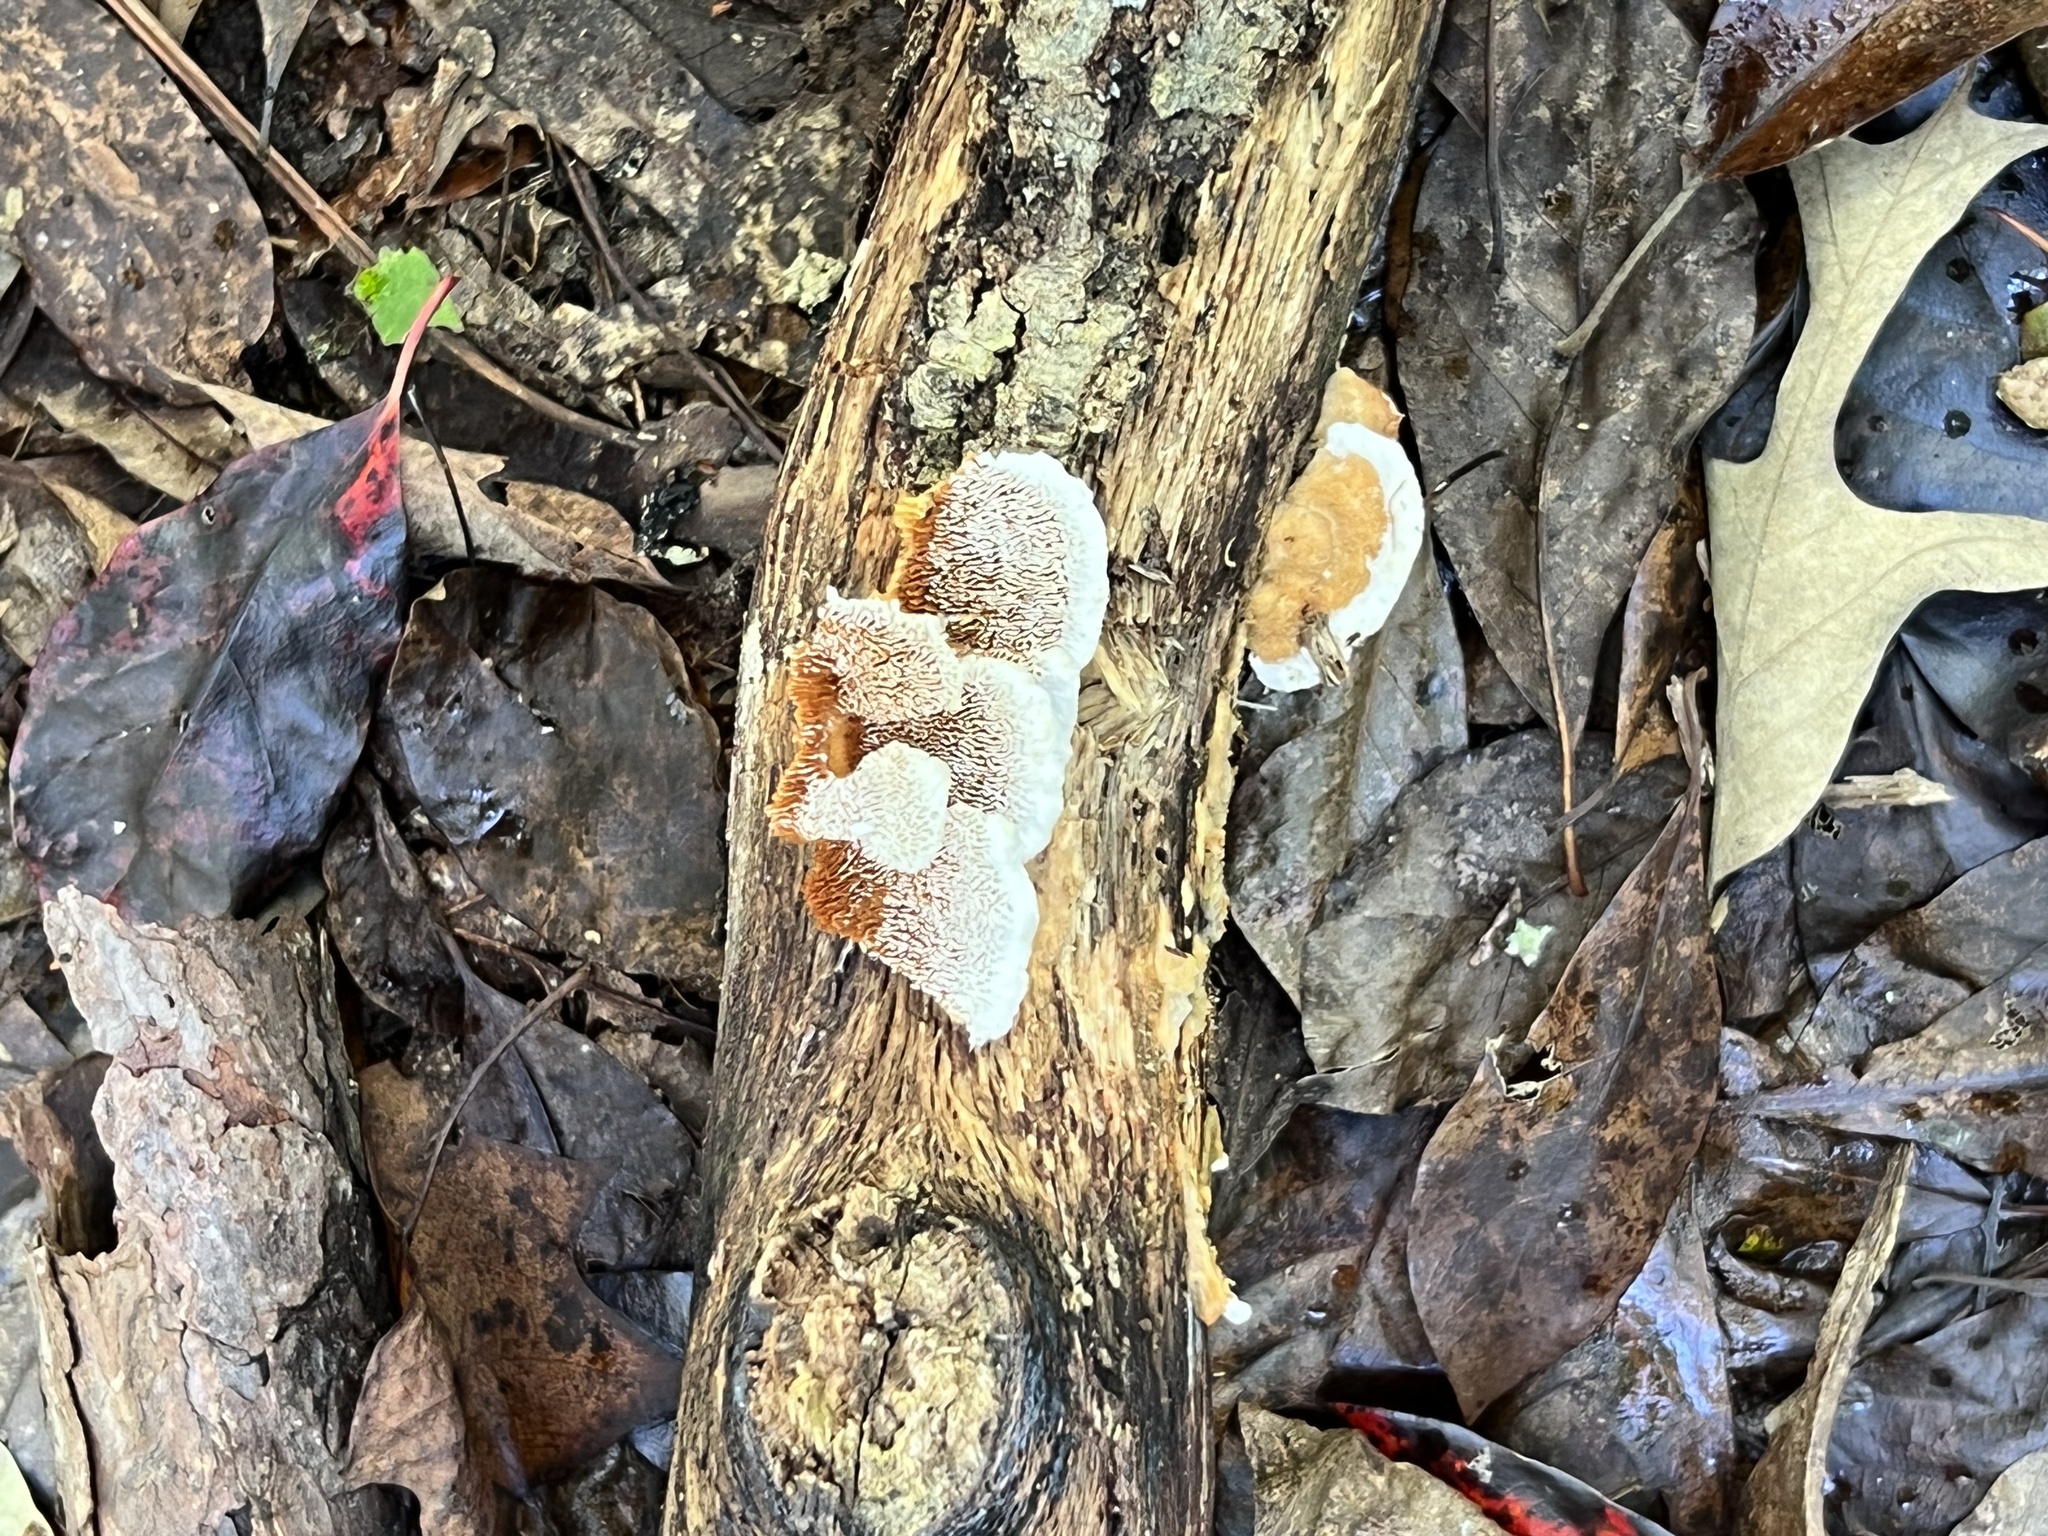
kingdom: Fungi
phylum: Basidiomycota
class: Agaricomycetes
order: Polyporales
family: Irpicaceae
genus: Trametopsis
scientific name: Trametopsis cervina
